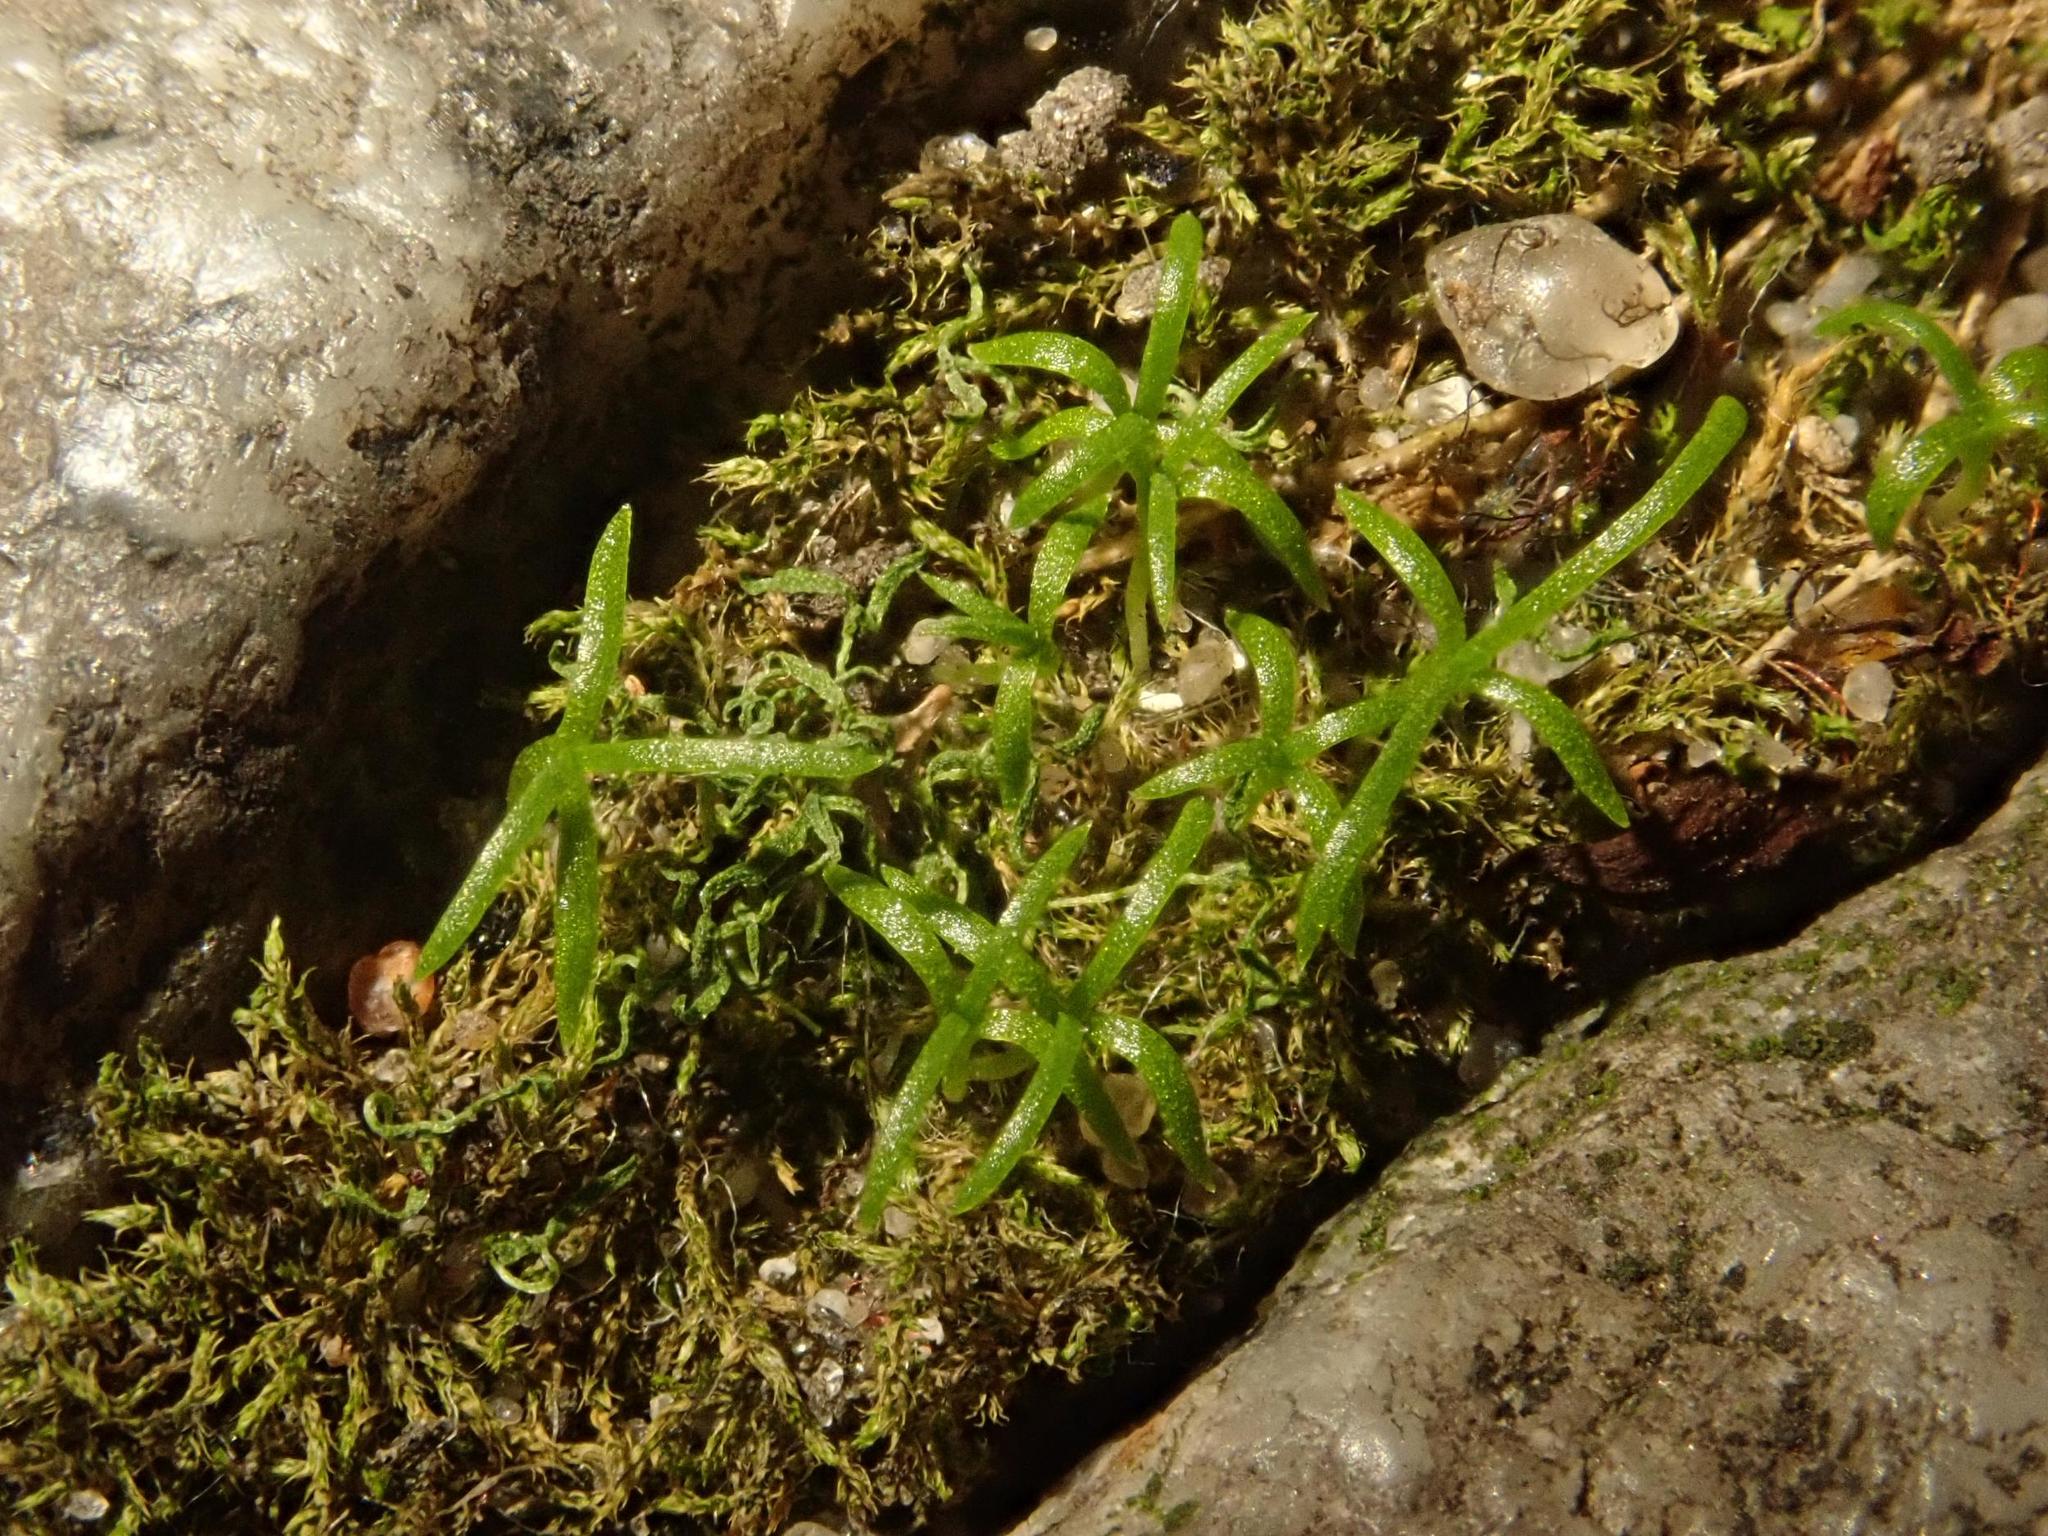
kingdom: Plantae
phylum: Tracheophyta
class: Magnoliopsida
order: Caryophyllales
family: Caryophyllaceae
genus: Sagina
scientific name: Sagina procumbens
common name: Procumbent pearlwort
